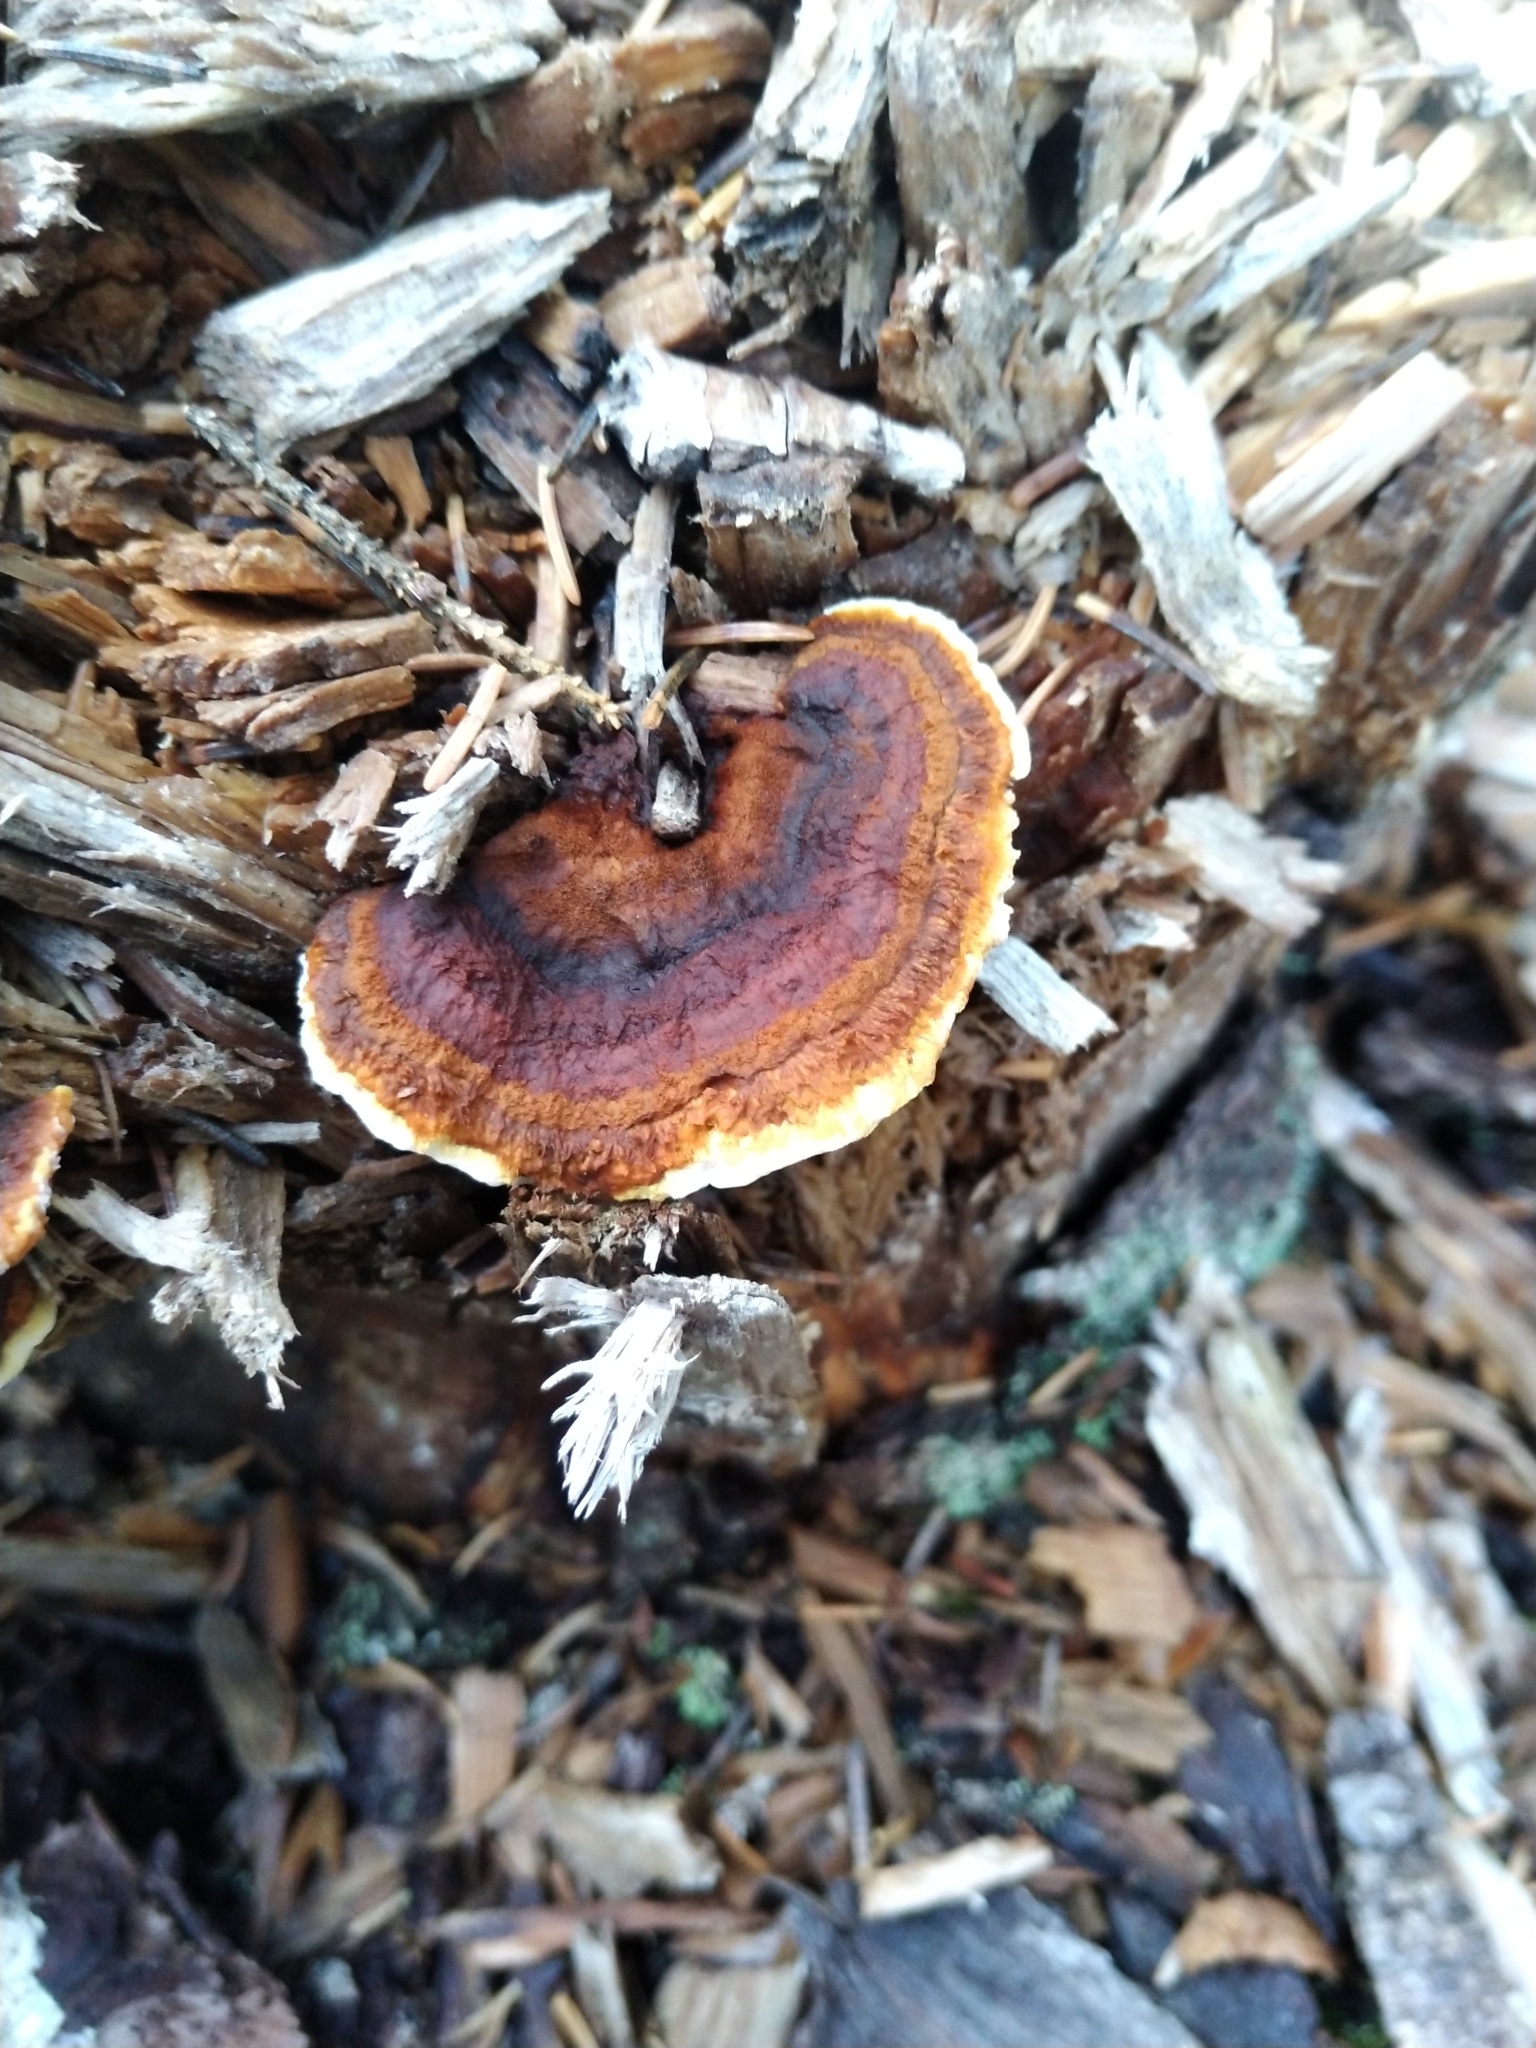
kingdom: Fungi
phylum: Basidiomycota
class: Agaricomycetes
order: Gloeophyllales
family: Gloeophyllaceae
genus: Gloeophyllum
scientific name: Gloeophyllum sepiarium
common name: Conifer mazegill
